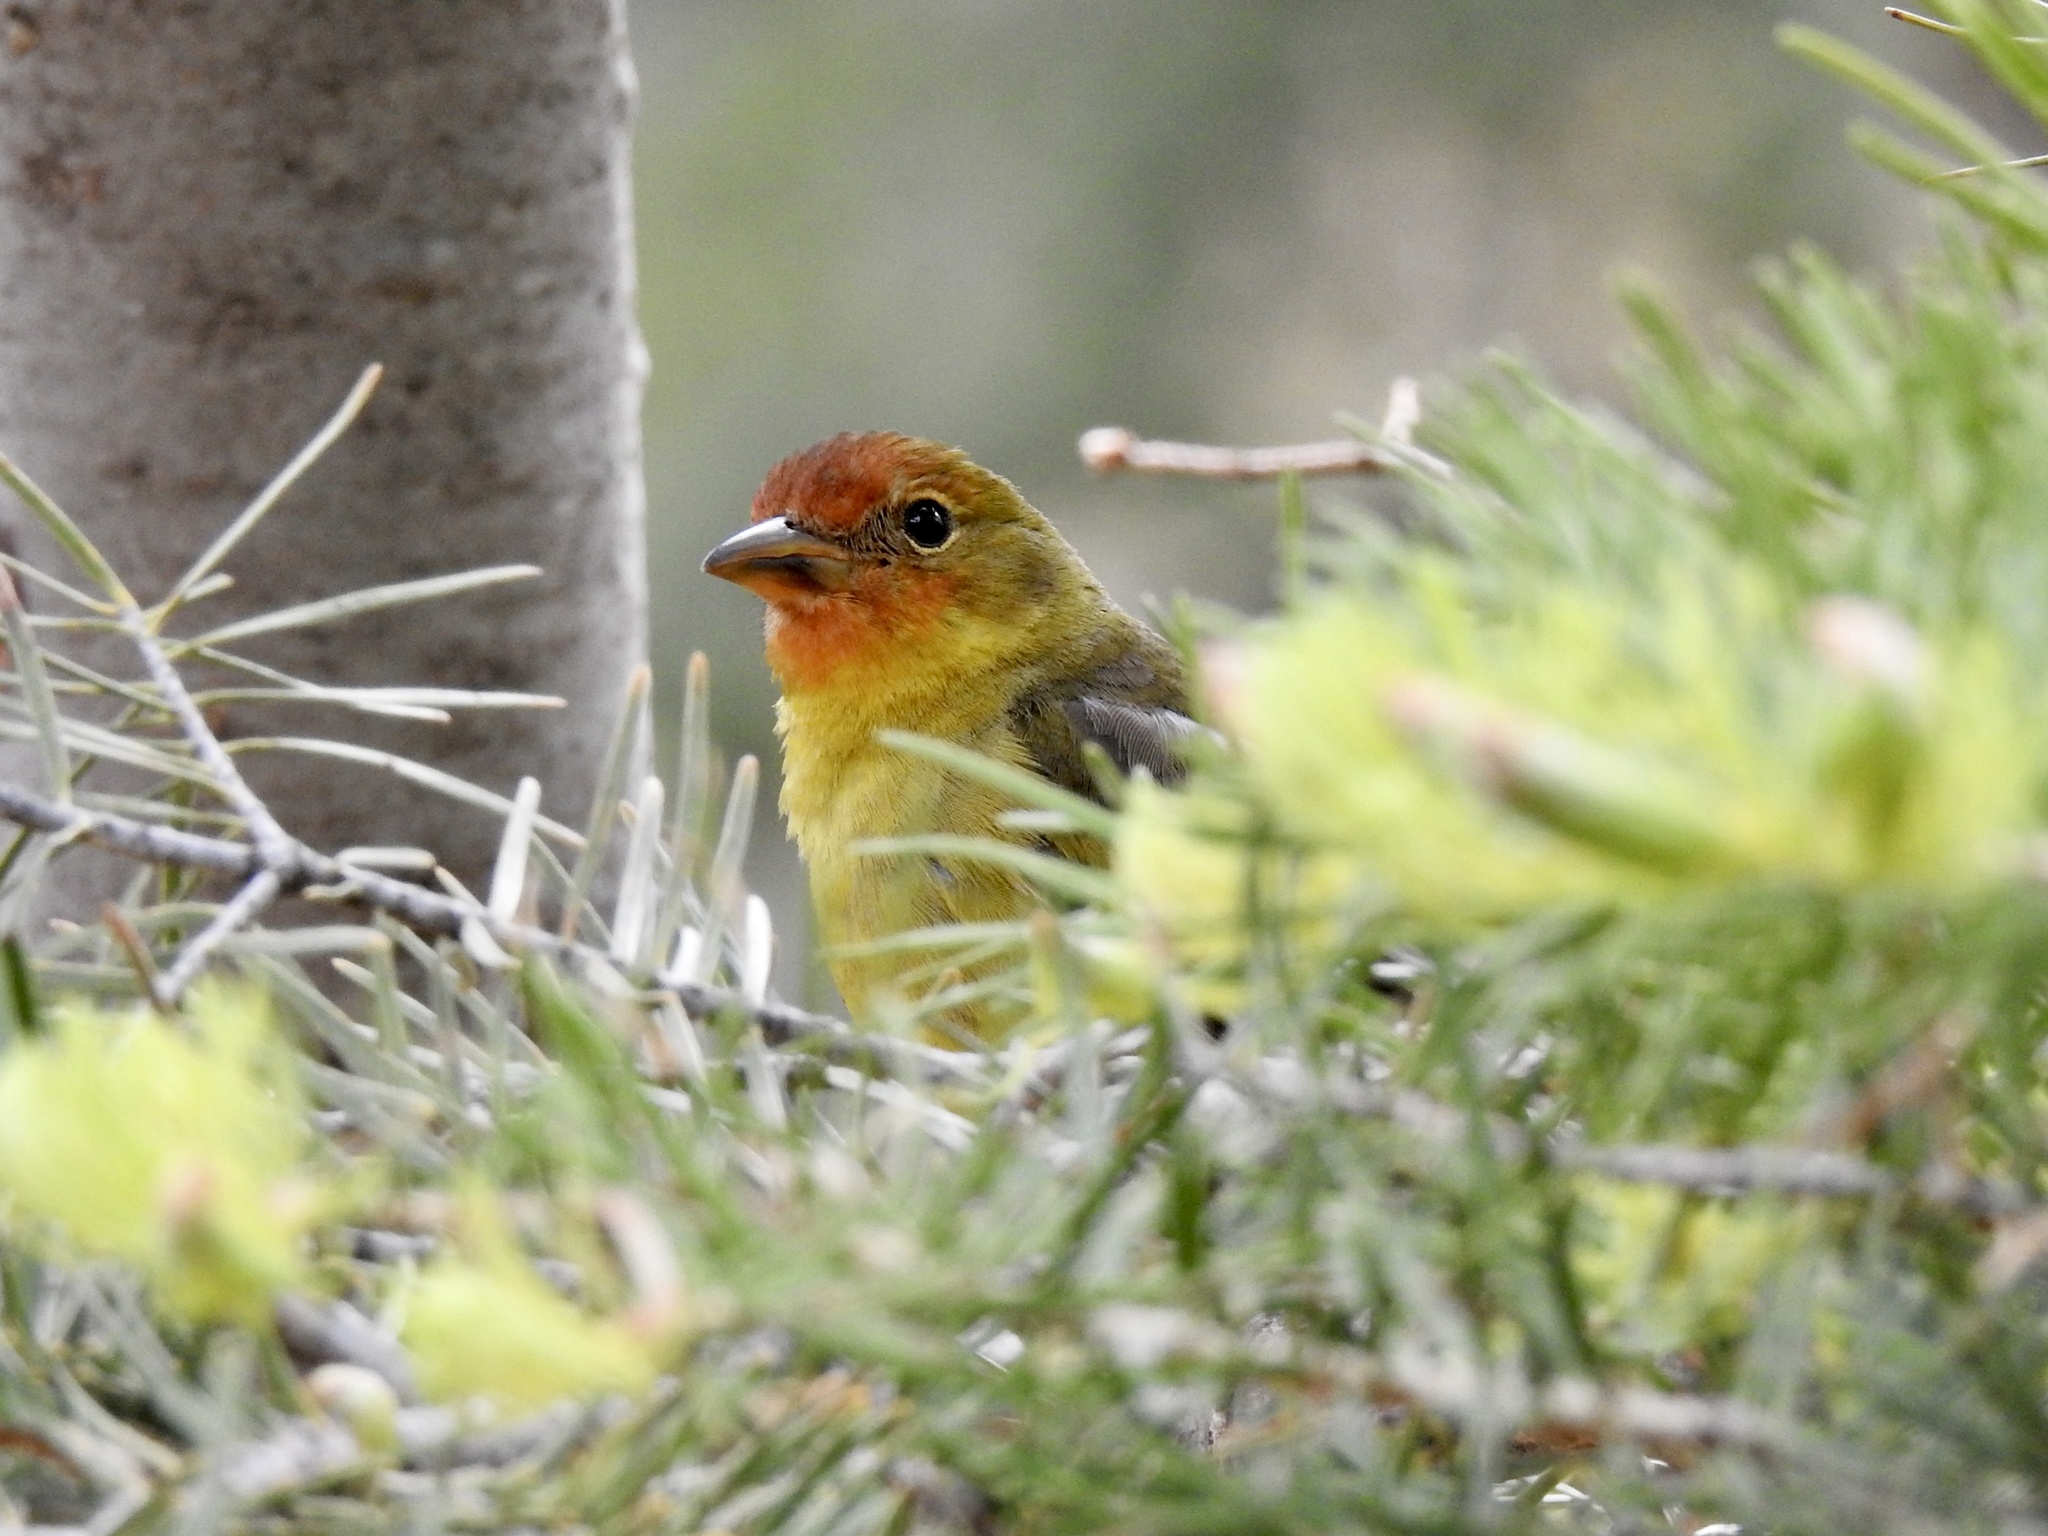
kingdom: Animalia
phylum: Chordata
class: Aves
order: Passeriformes
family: Cardinalidae
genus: Piranga
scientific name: Piranga ludoviciana
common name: Western tanager
